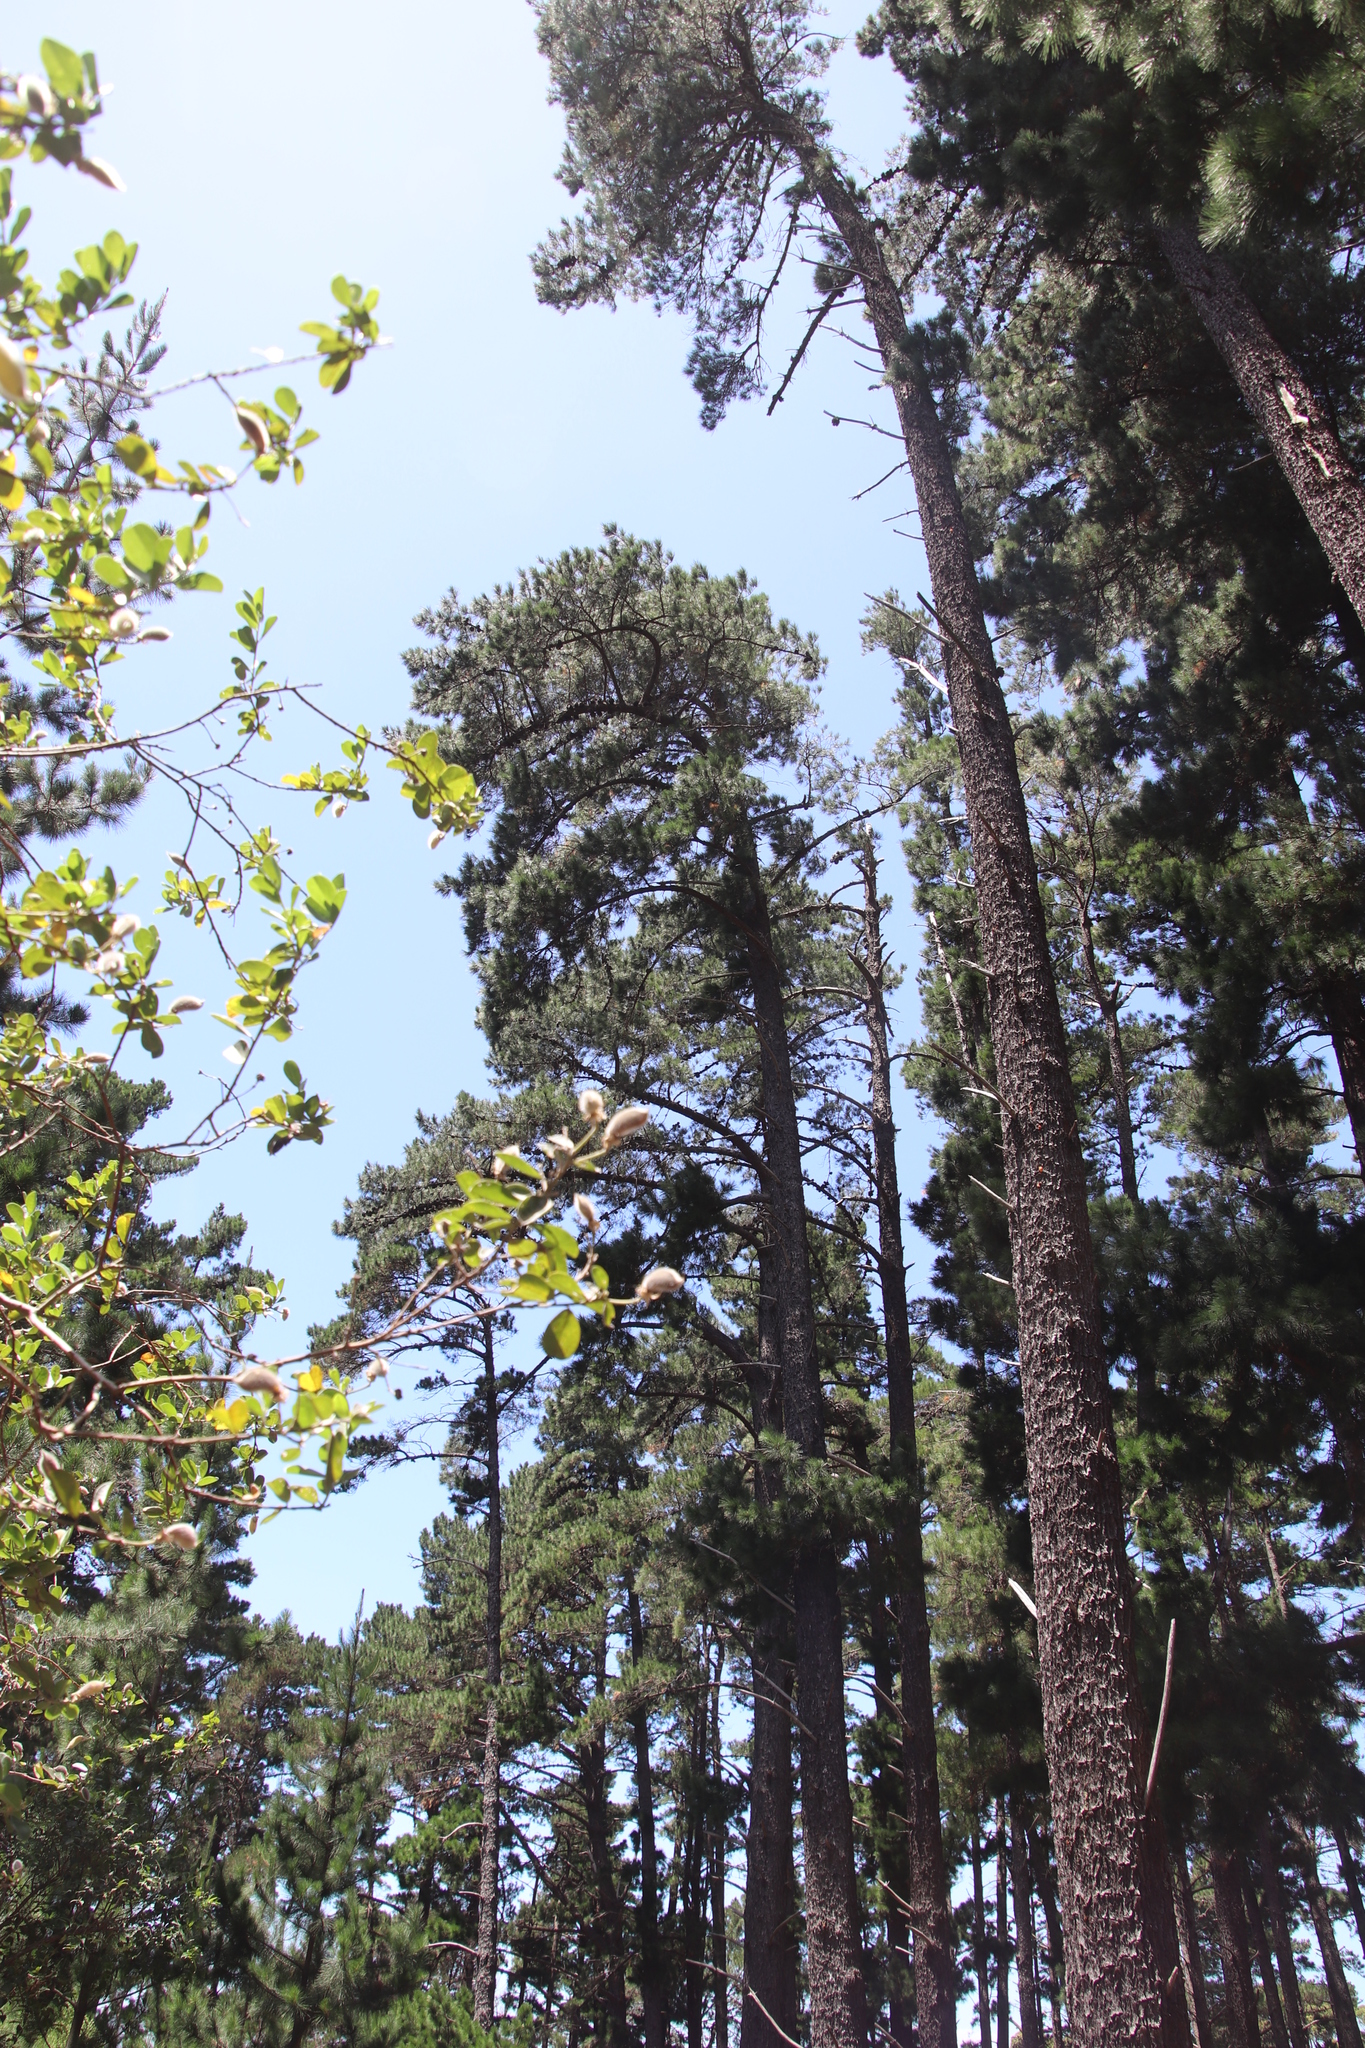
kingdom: Plantae
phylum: Tracheophyta
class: Pinopsida
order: Pinales
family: Pinaceae
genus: Pinus
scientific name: Pinus radiata
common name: Monterey pine
